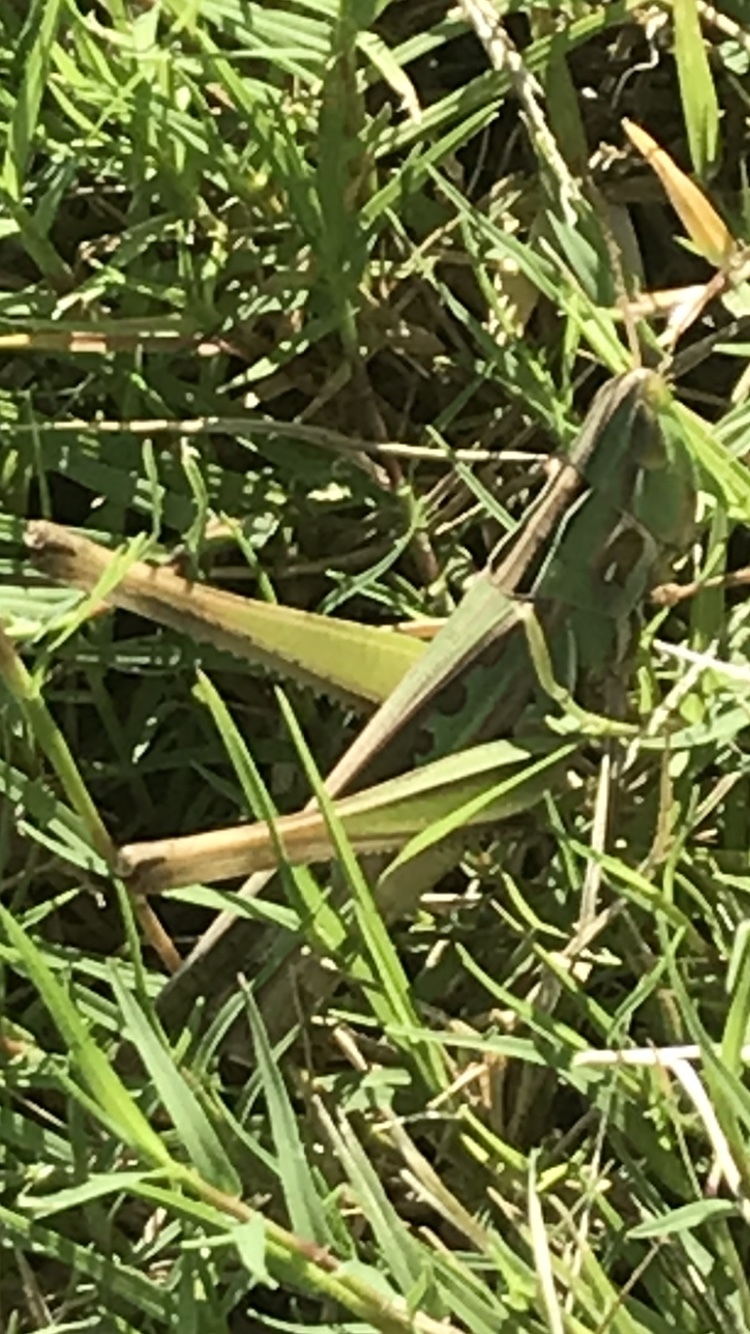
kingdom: Animalia
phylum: Arthropoda
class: Insecta
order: Orthoptera
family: Acrididae
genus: Syrbula
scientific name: Syrbula admirabilis
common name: Handsome grasshopper
